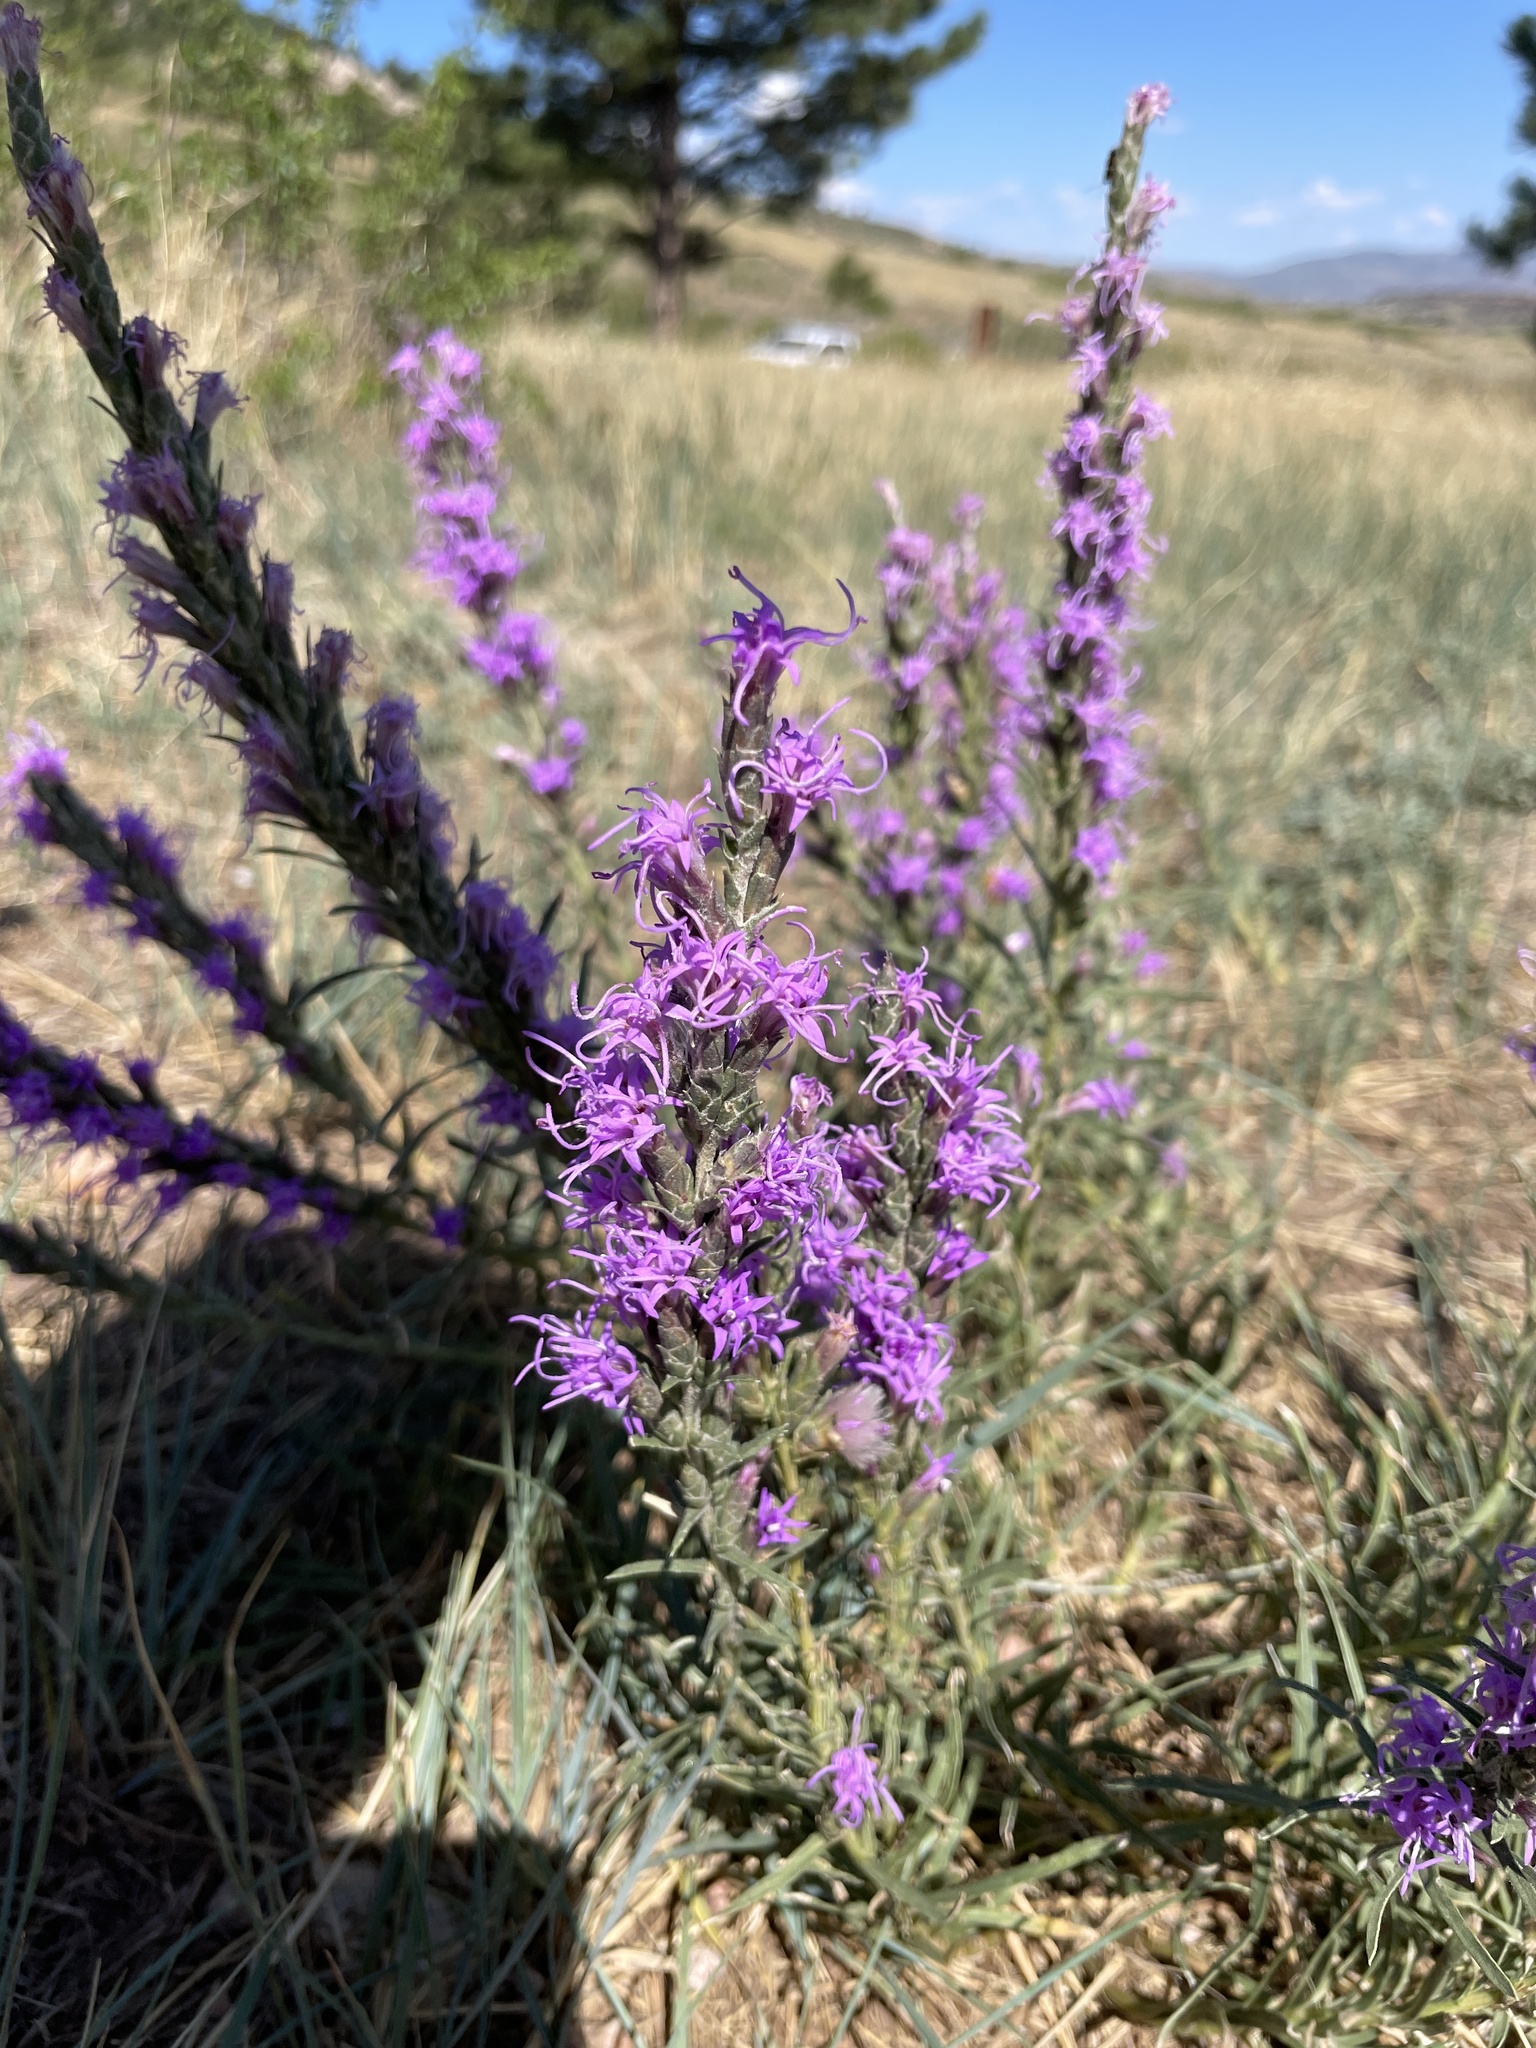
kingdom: Plantae
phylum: Tracheophyta
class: Magnoliopsida
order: Asterales
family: Asteraceae
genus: Liatris
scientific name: Liatris punctata
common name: Dotted gayfeather
